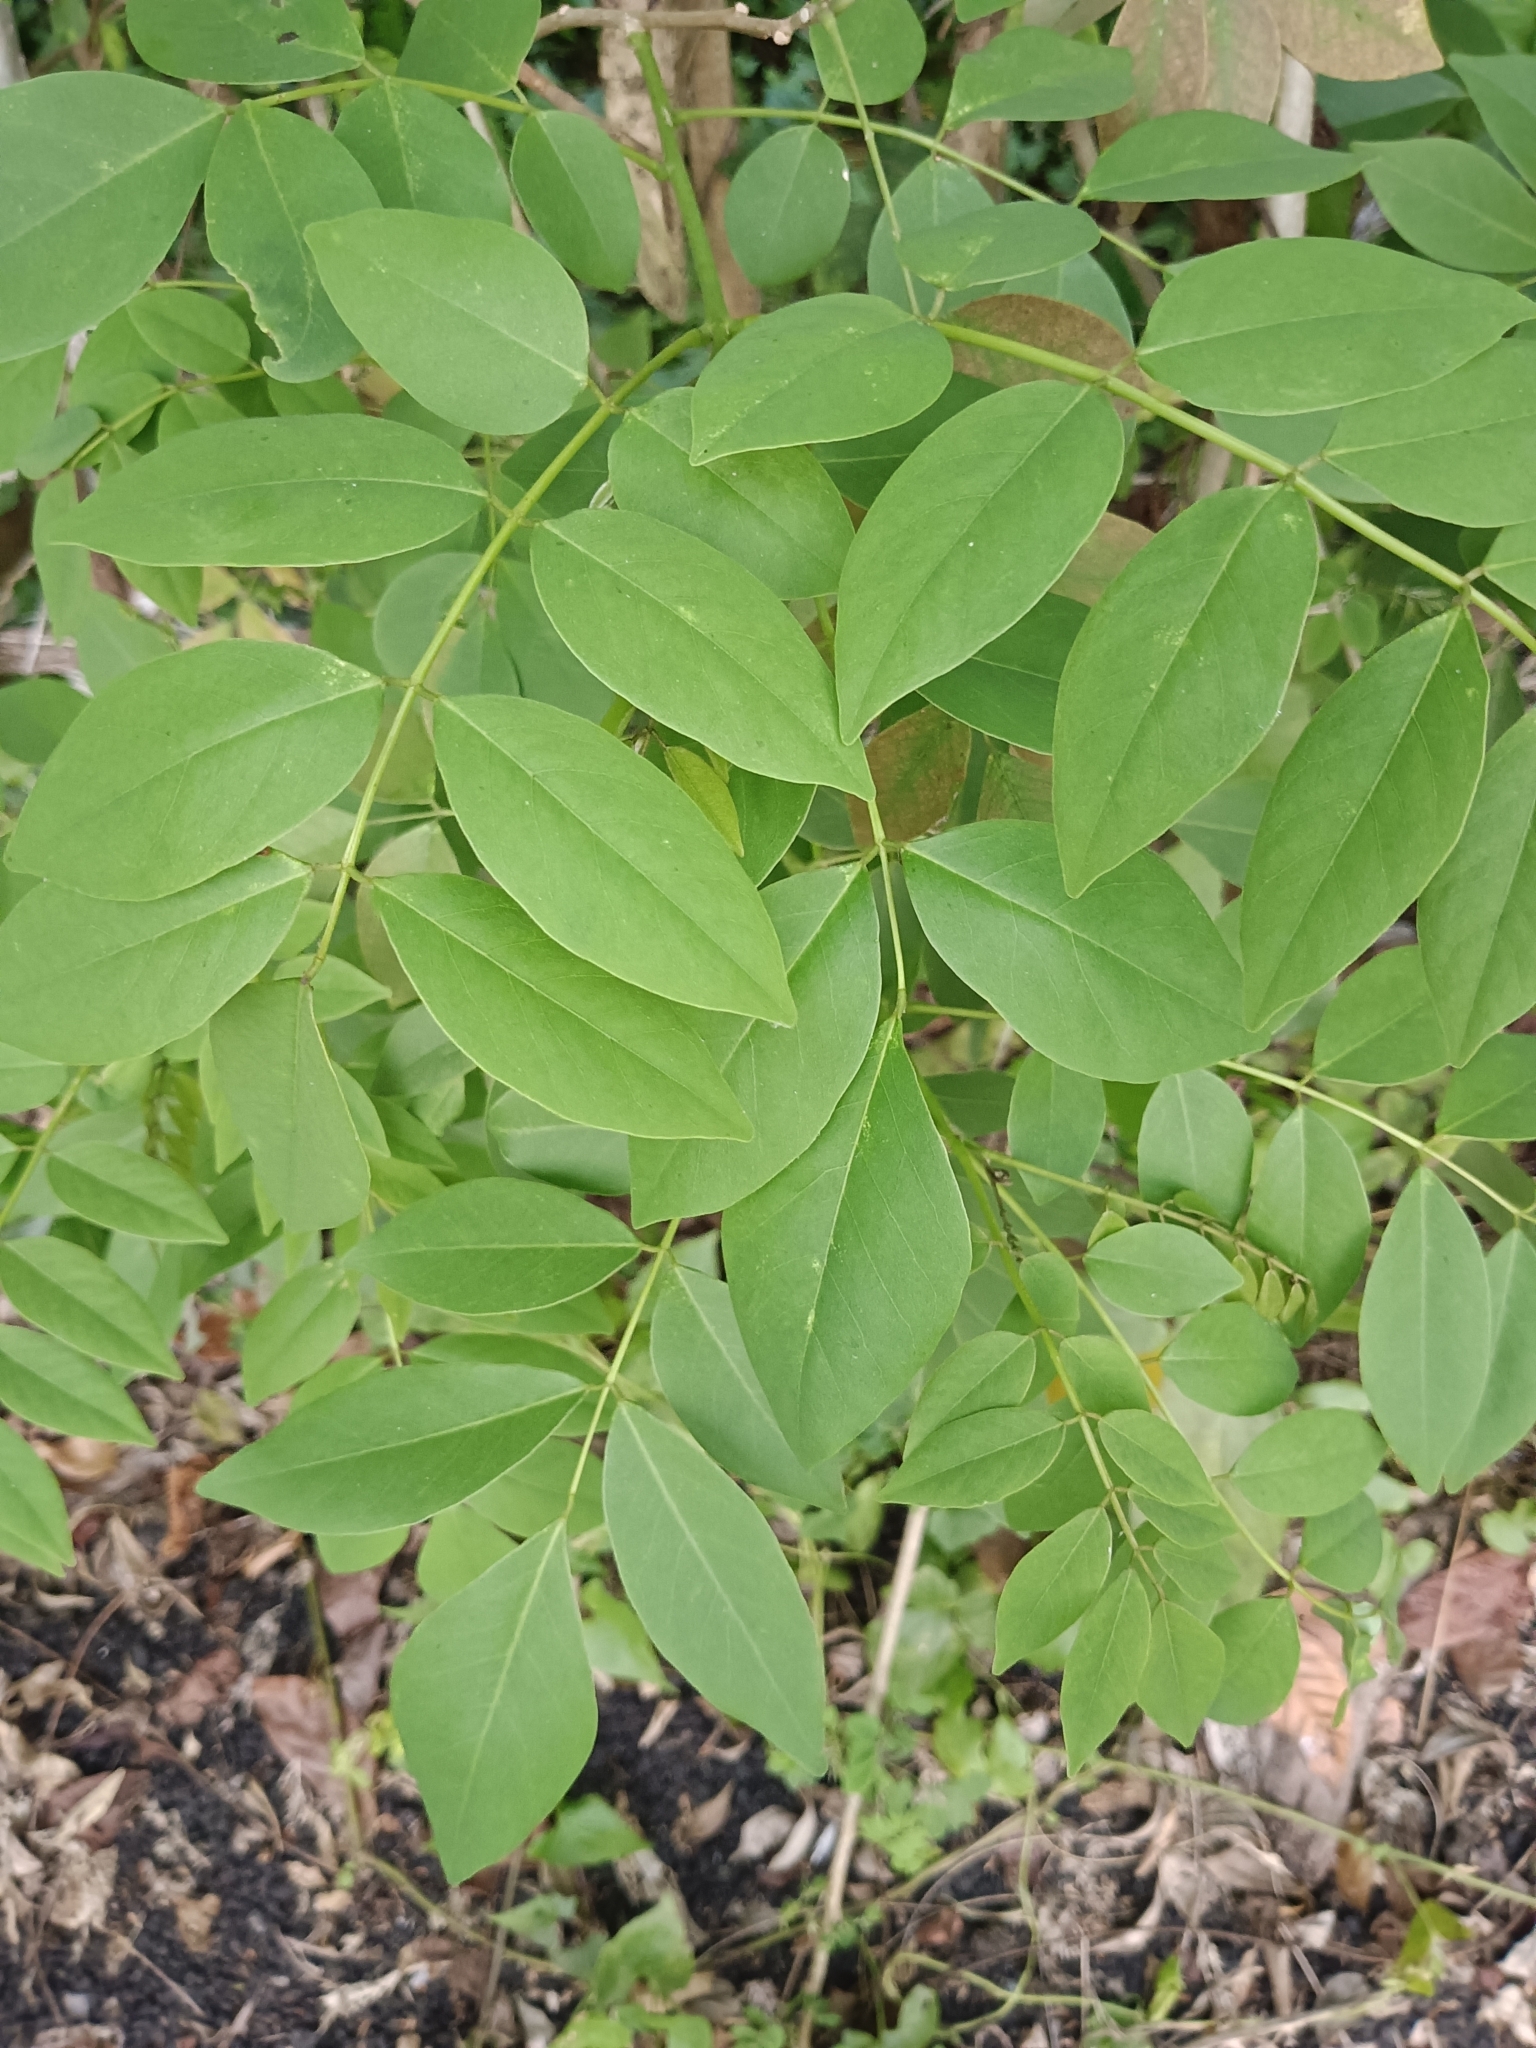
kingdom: Plantae
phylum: Tracheophyta
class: Magnoliopsida
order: Fabales
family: Fabaceae
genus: Gliricidia
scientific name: Gliricidia sepium
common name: Quickstick
